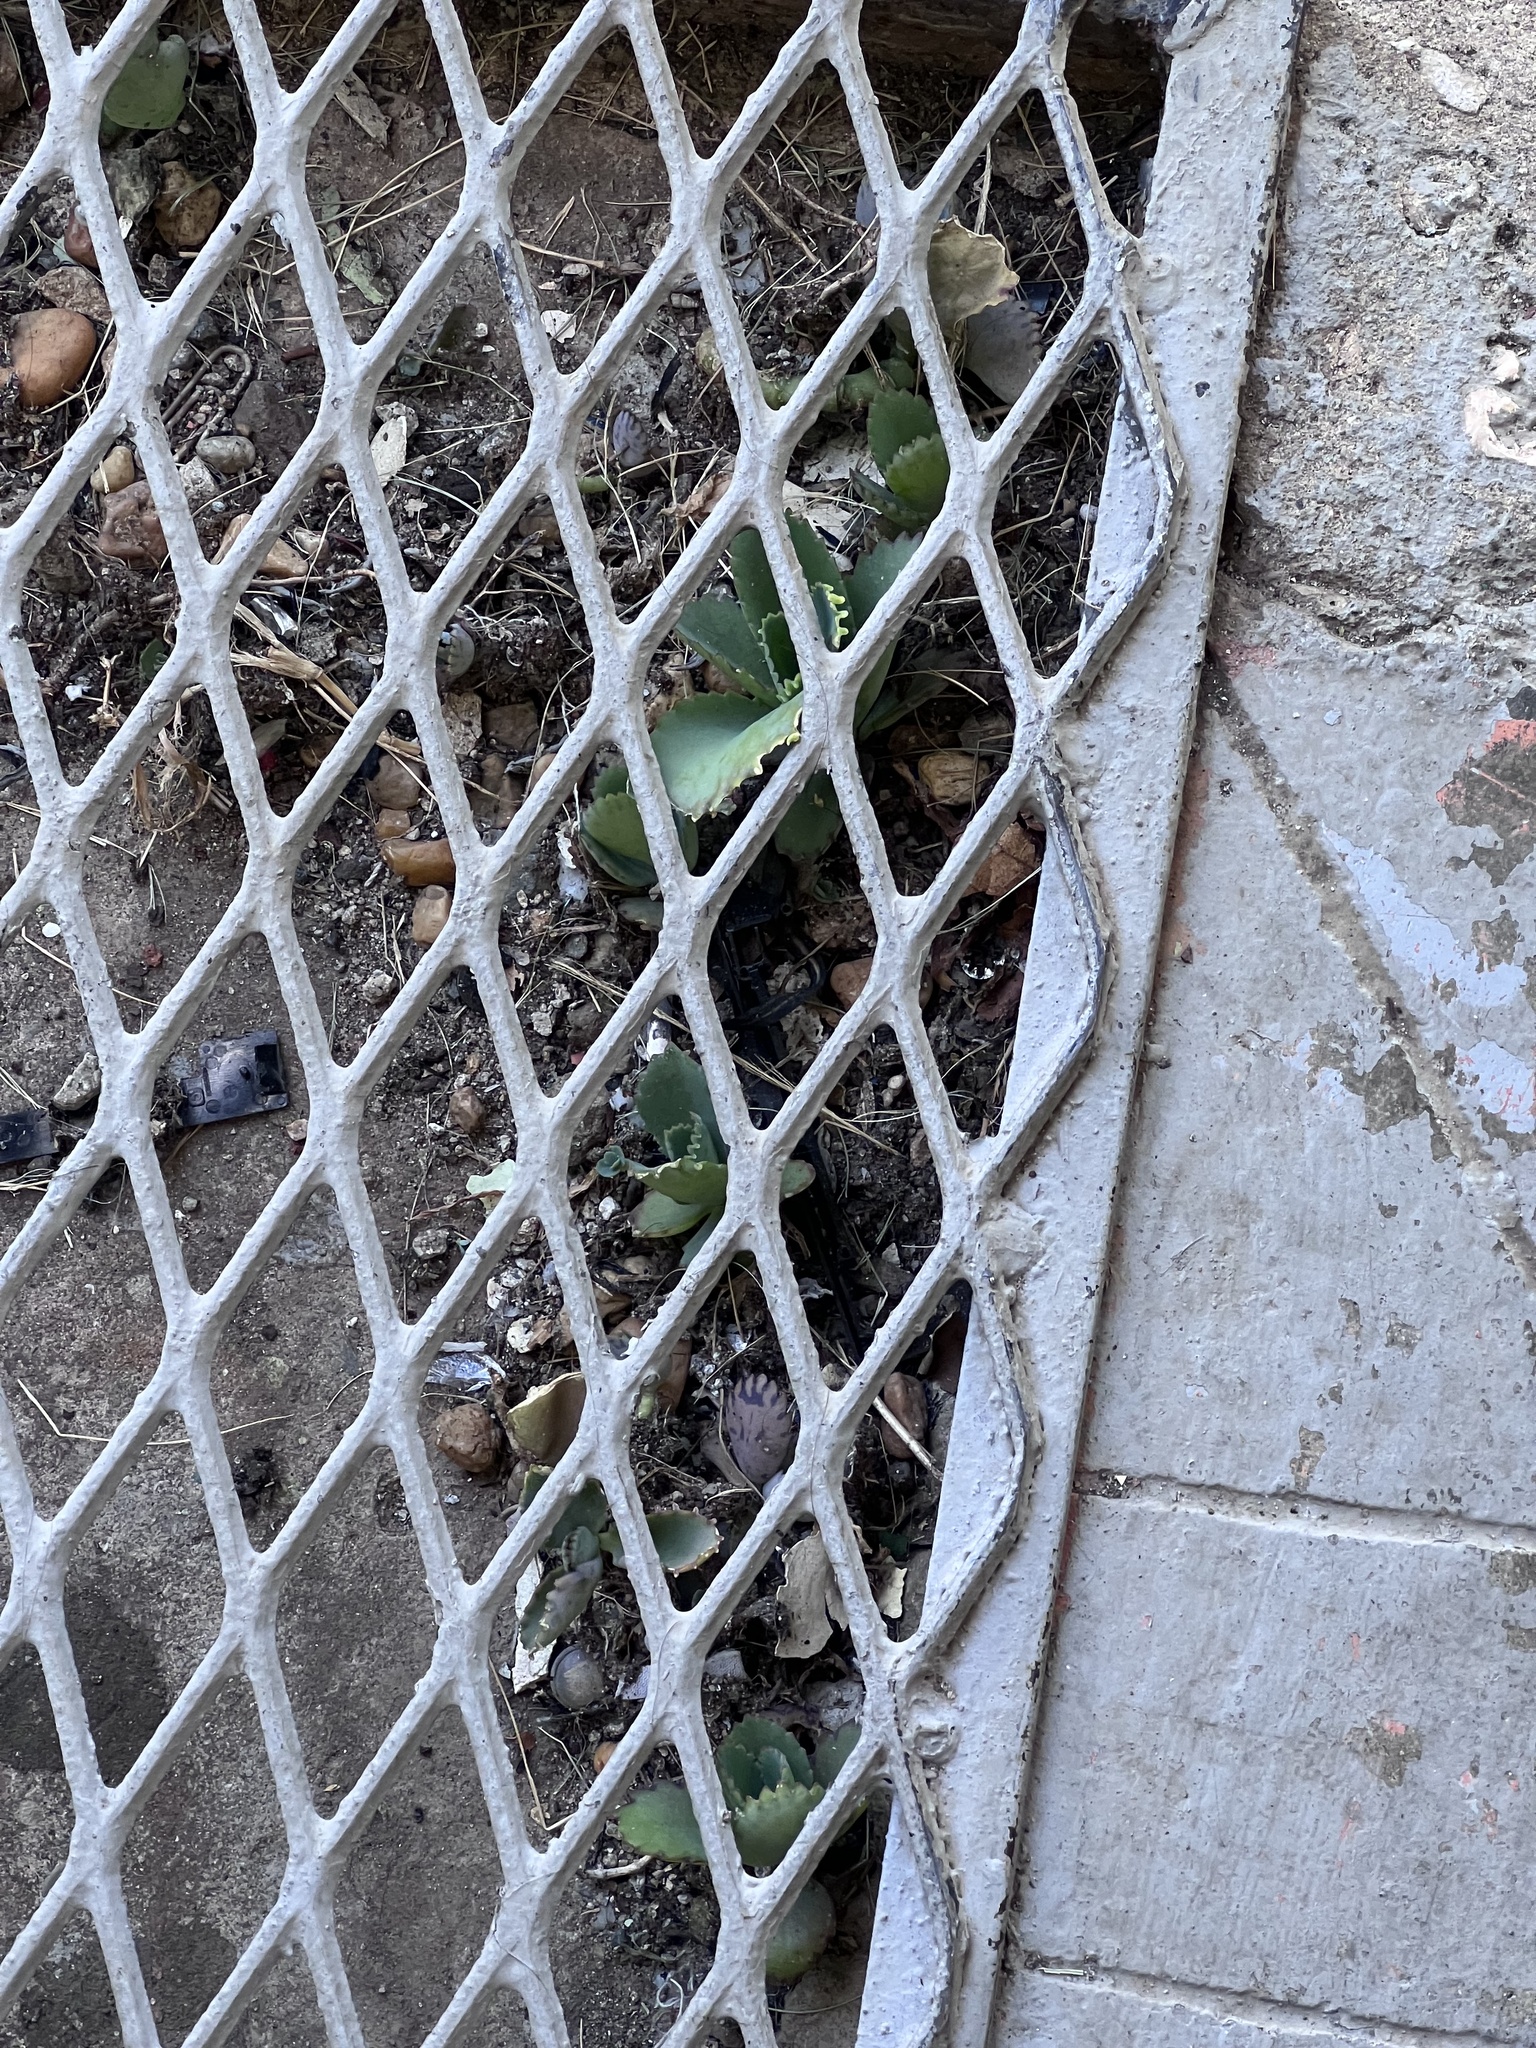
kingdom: Plantae
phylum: Tracheophyta
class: Magnoliopsida
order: Saxifragales
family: Crassulaceae
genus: Kalanchoe
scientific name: Kalanchoe laetivirens
